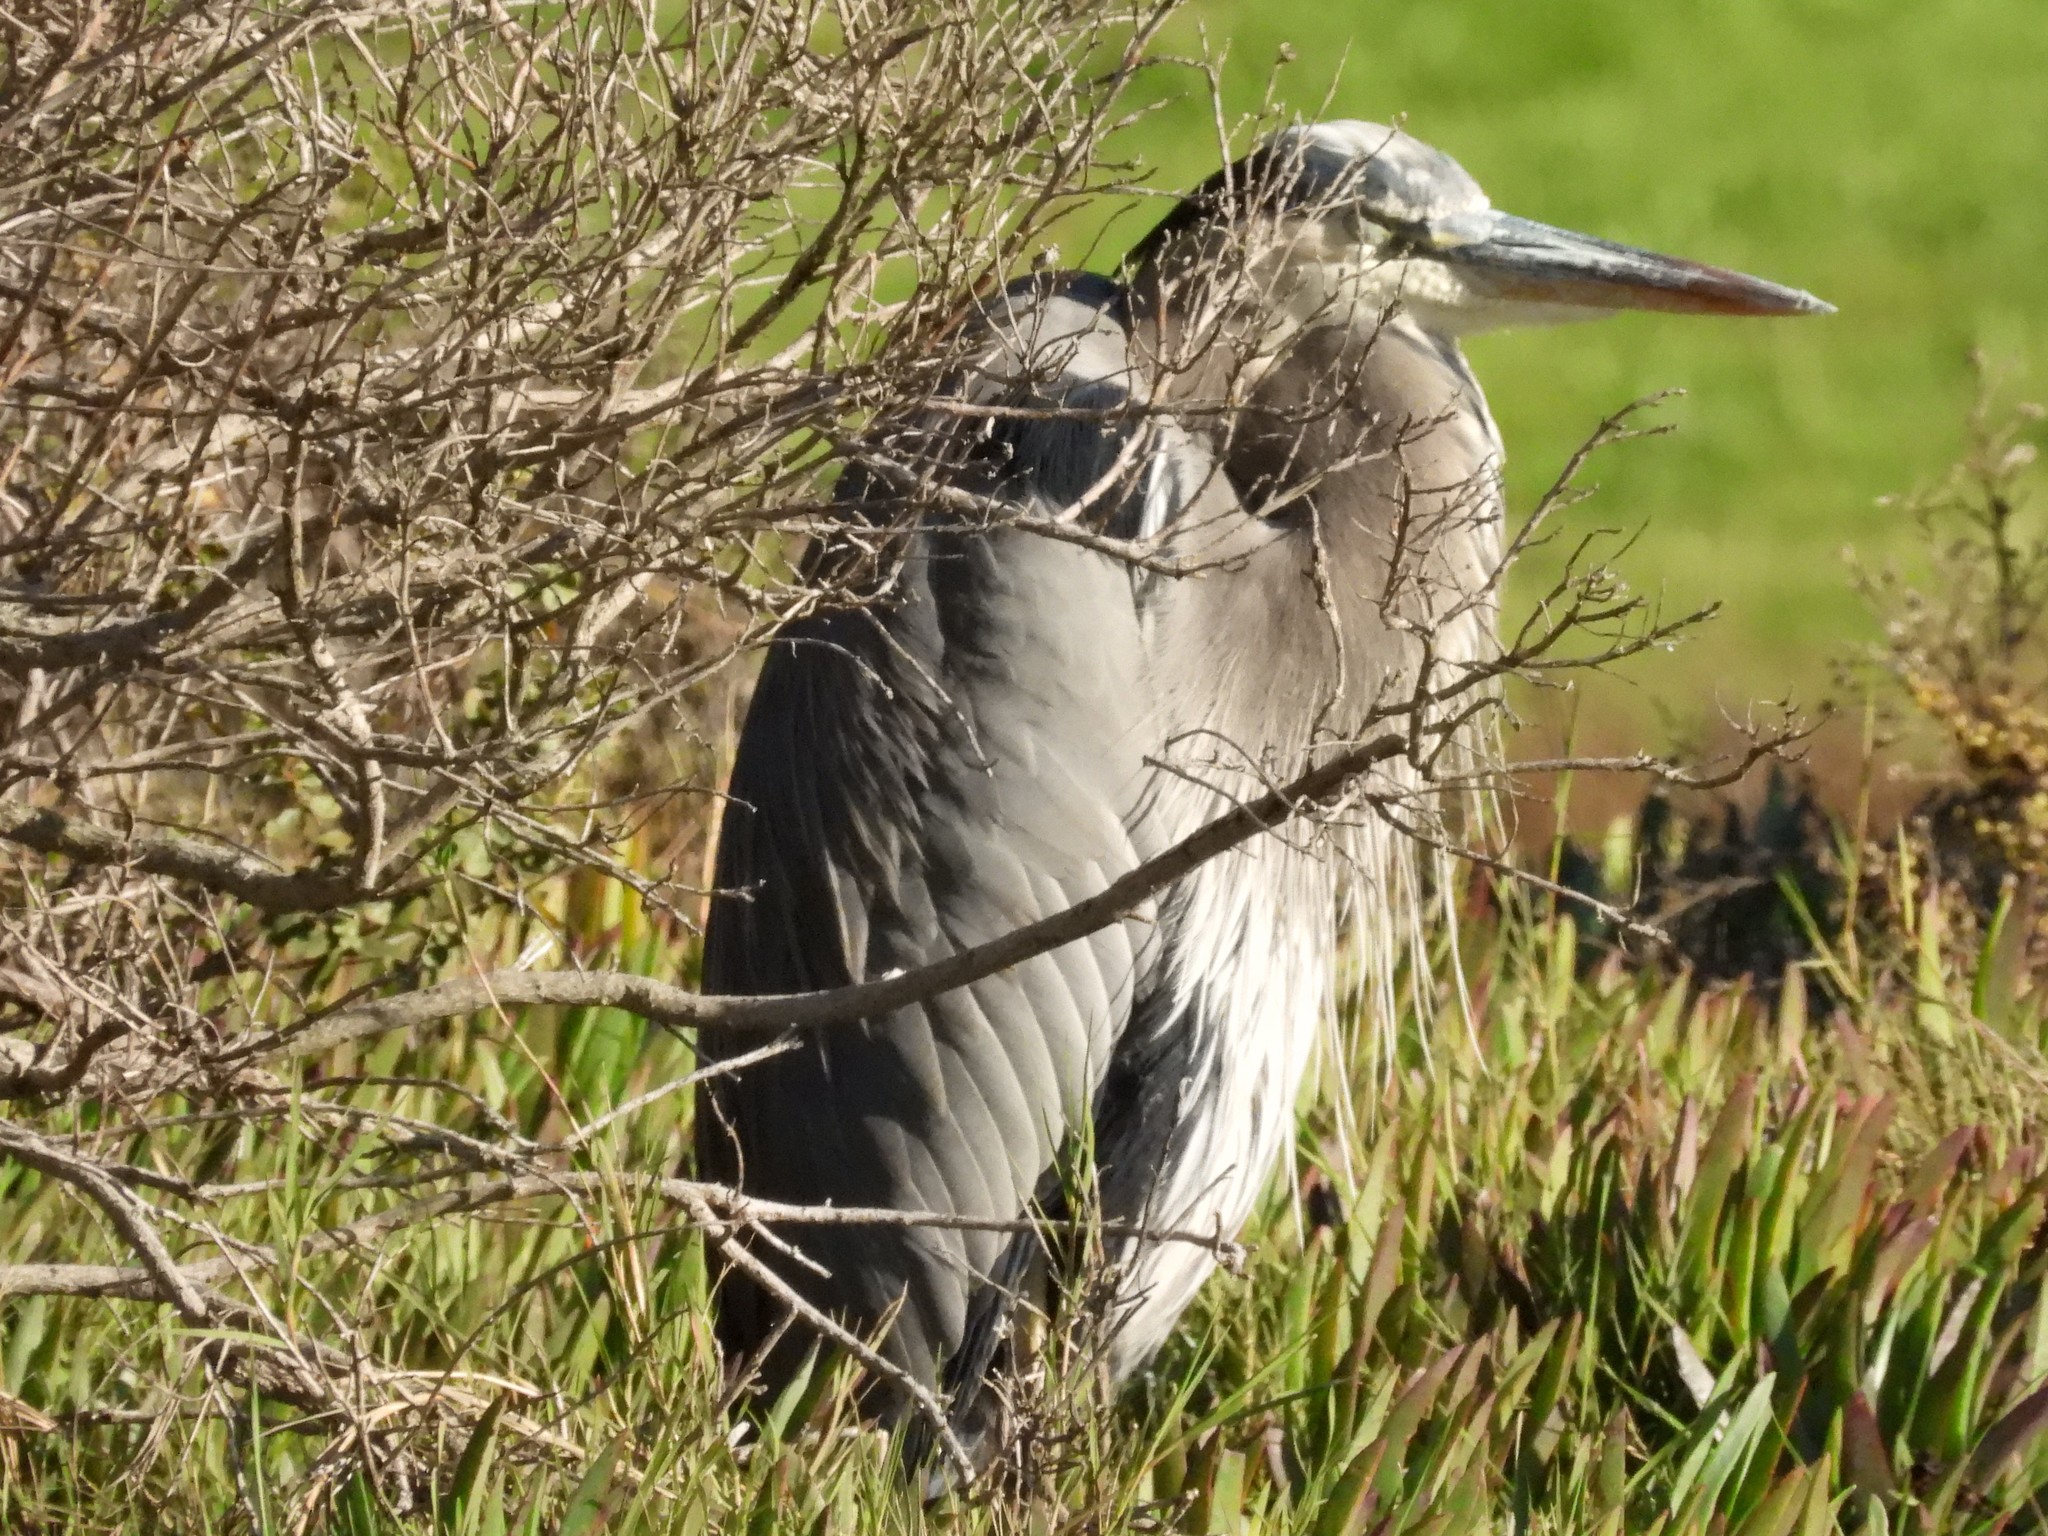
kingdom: Animalia
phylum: Chordata
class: Aves
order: Pelecaniformes
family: Ardeidae
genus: Ardea
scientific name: Ardea herodias
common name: Great blue heron
